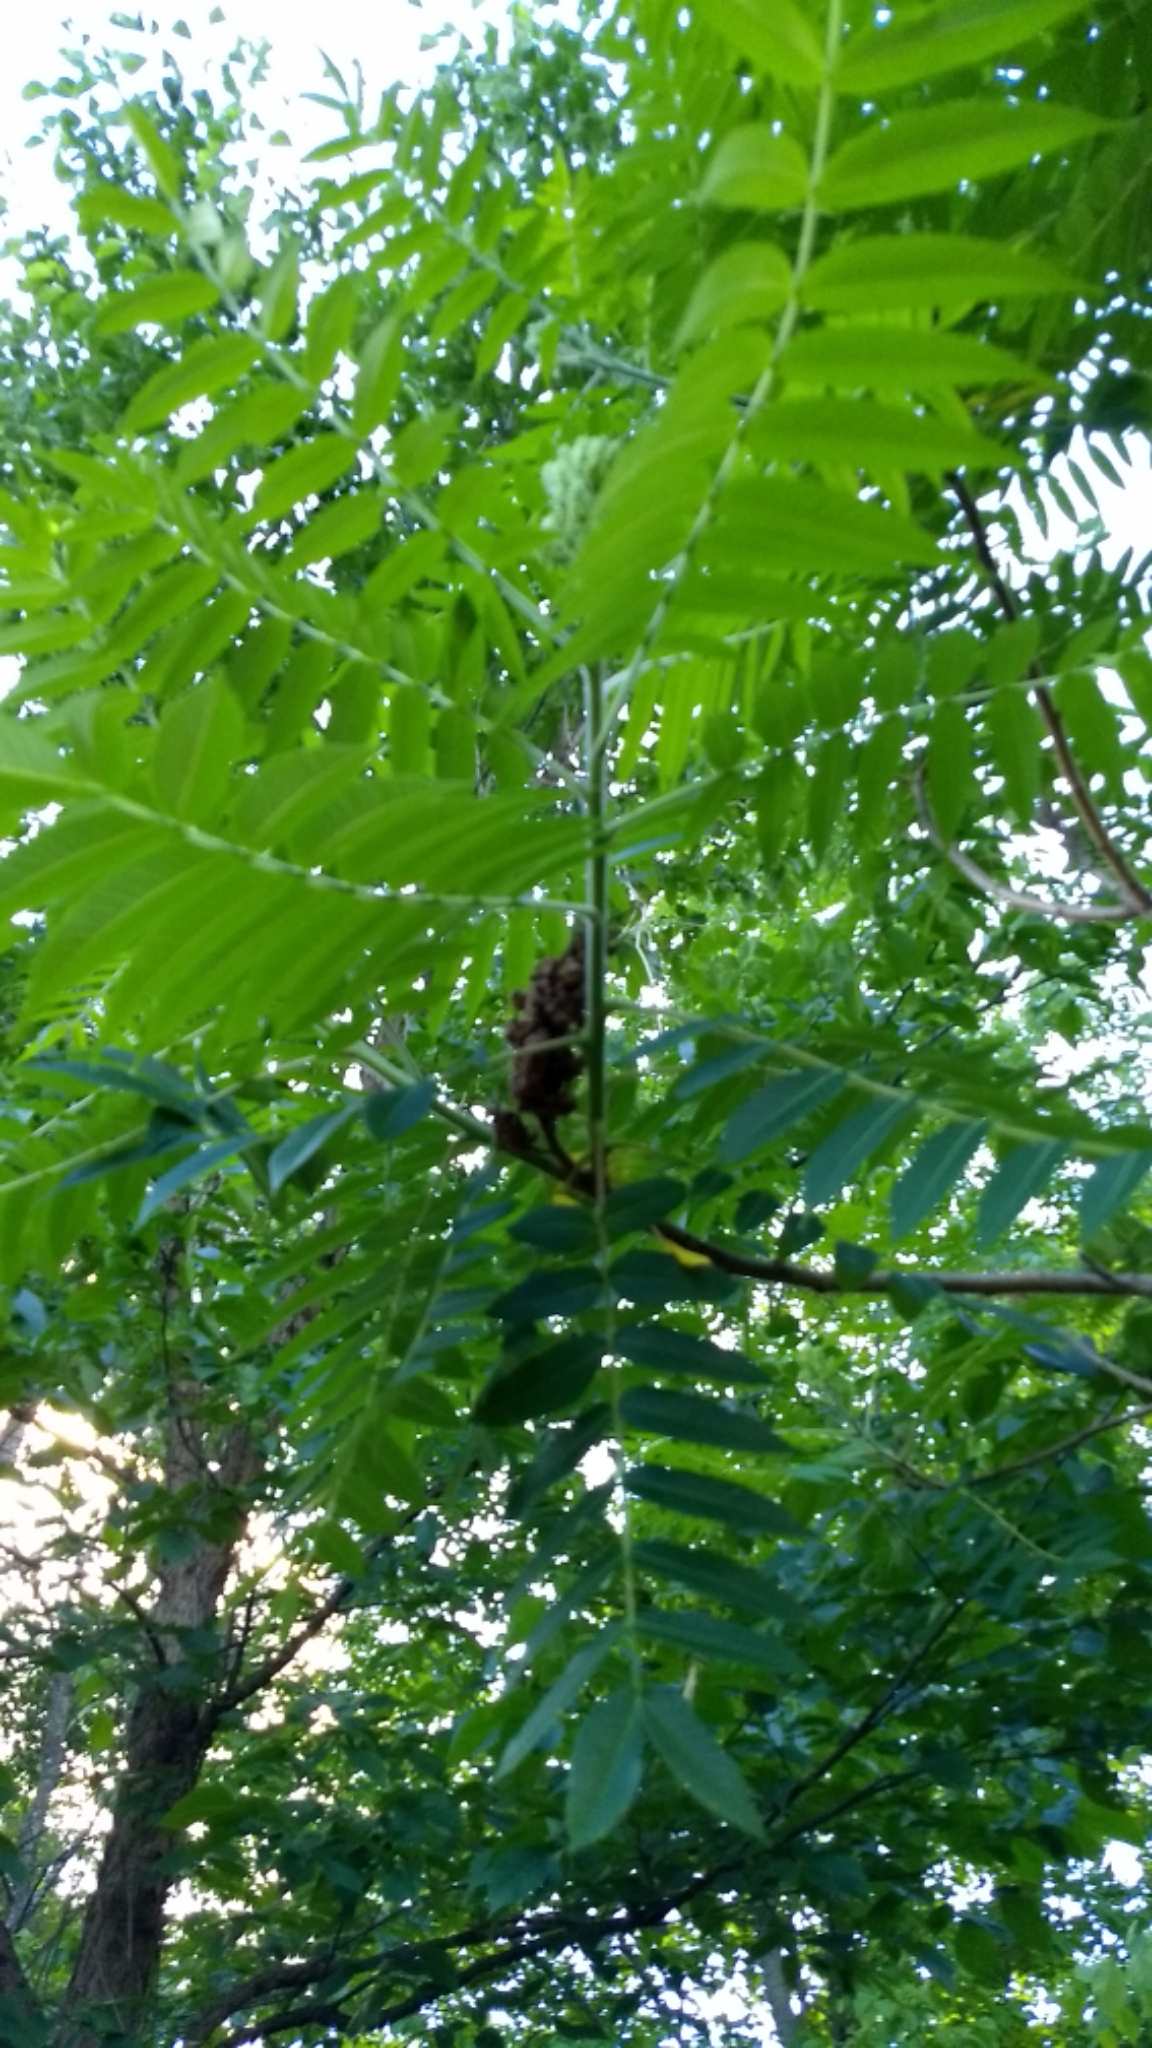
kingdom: Plantae
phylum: Tracheophyta
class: Magnoliopsida
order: Sapindales
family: Anacardiaceae
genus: Rhus
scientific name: Rhus typhina
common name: Staghorn sumac
